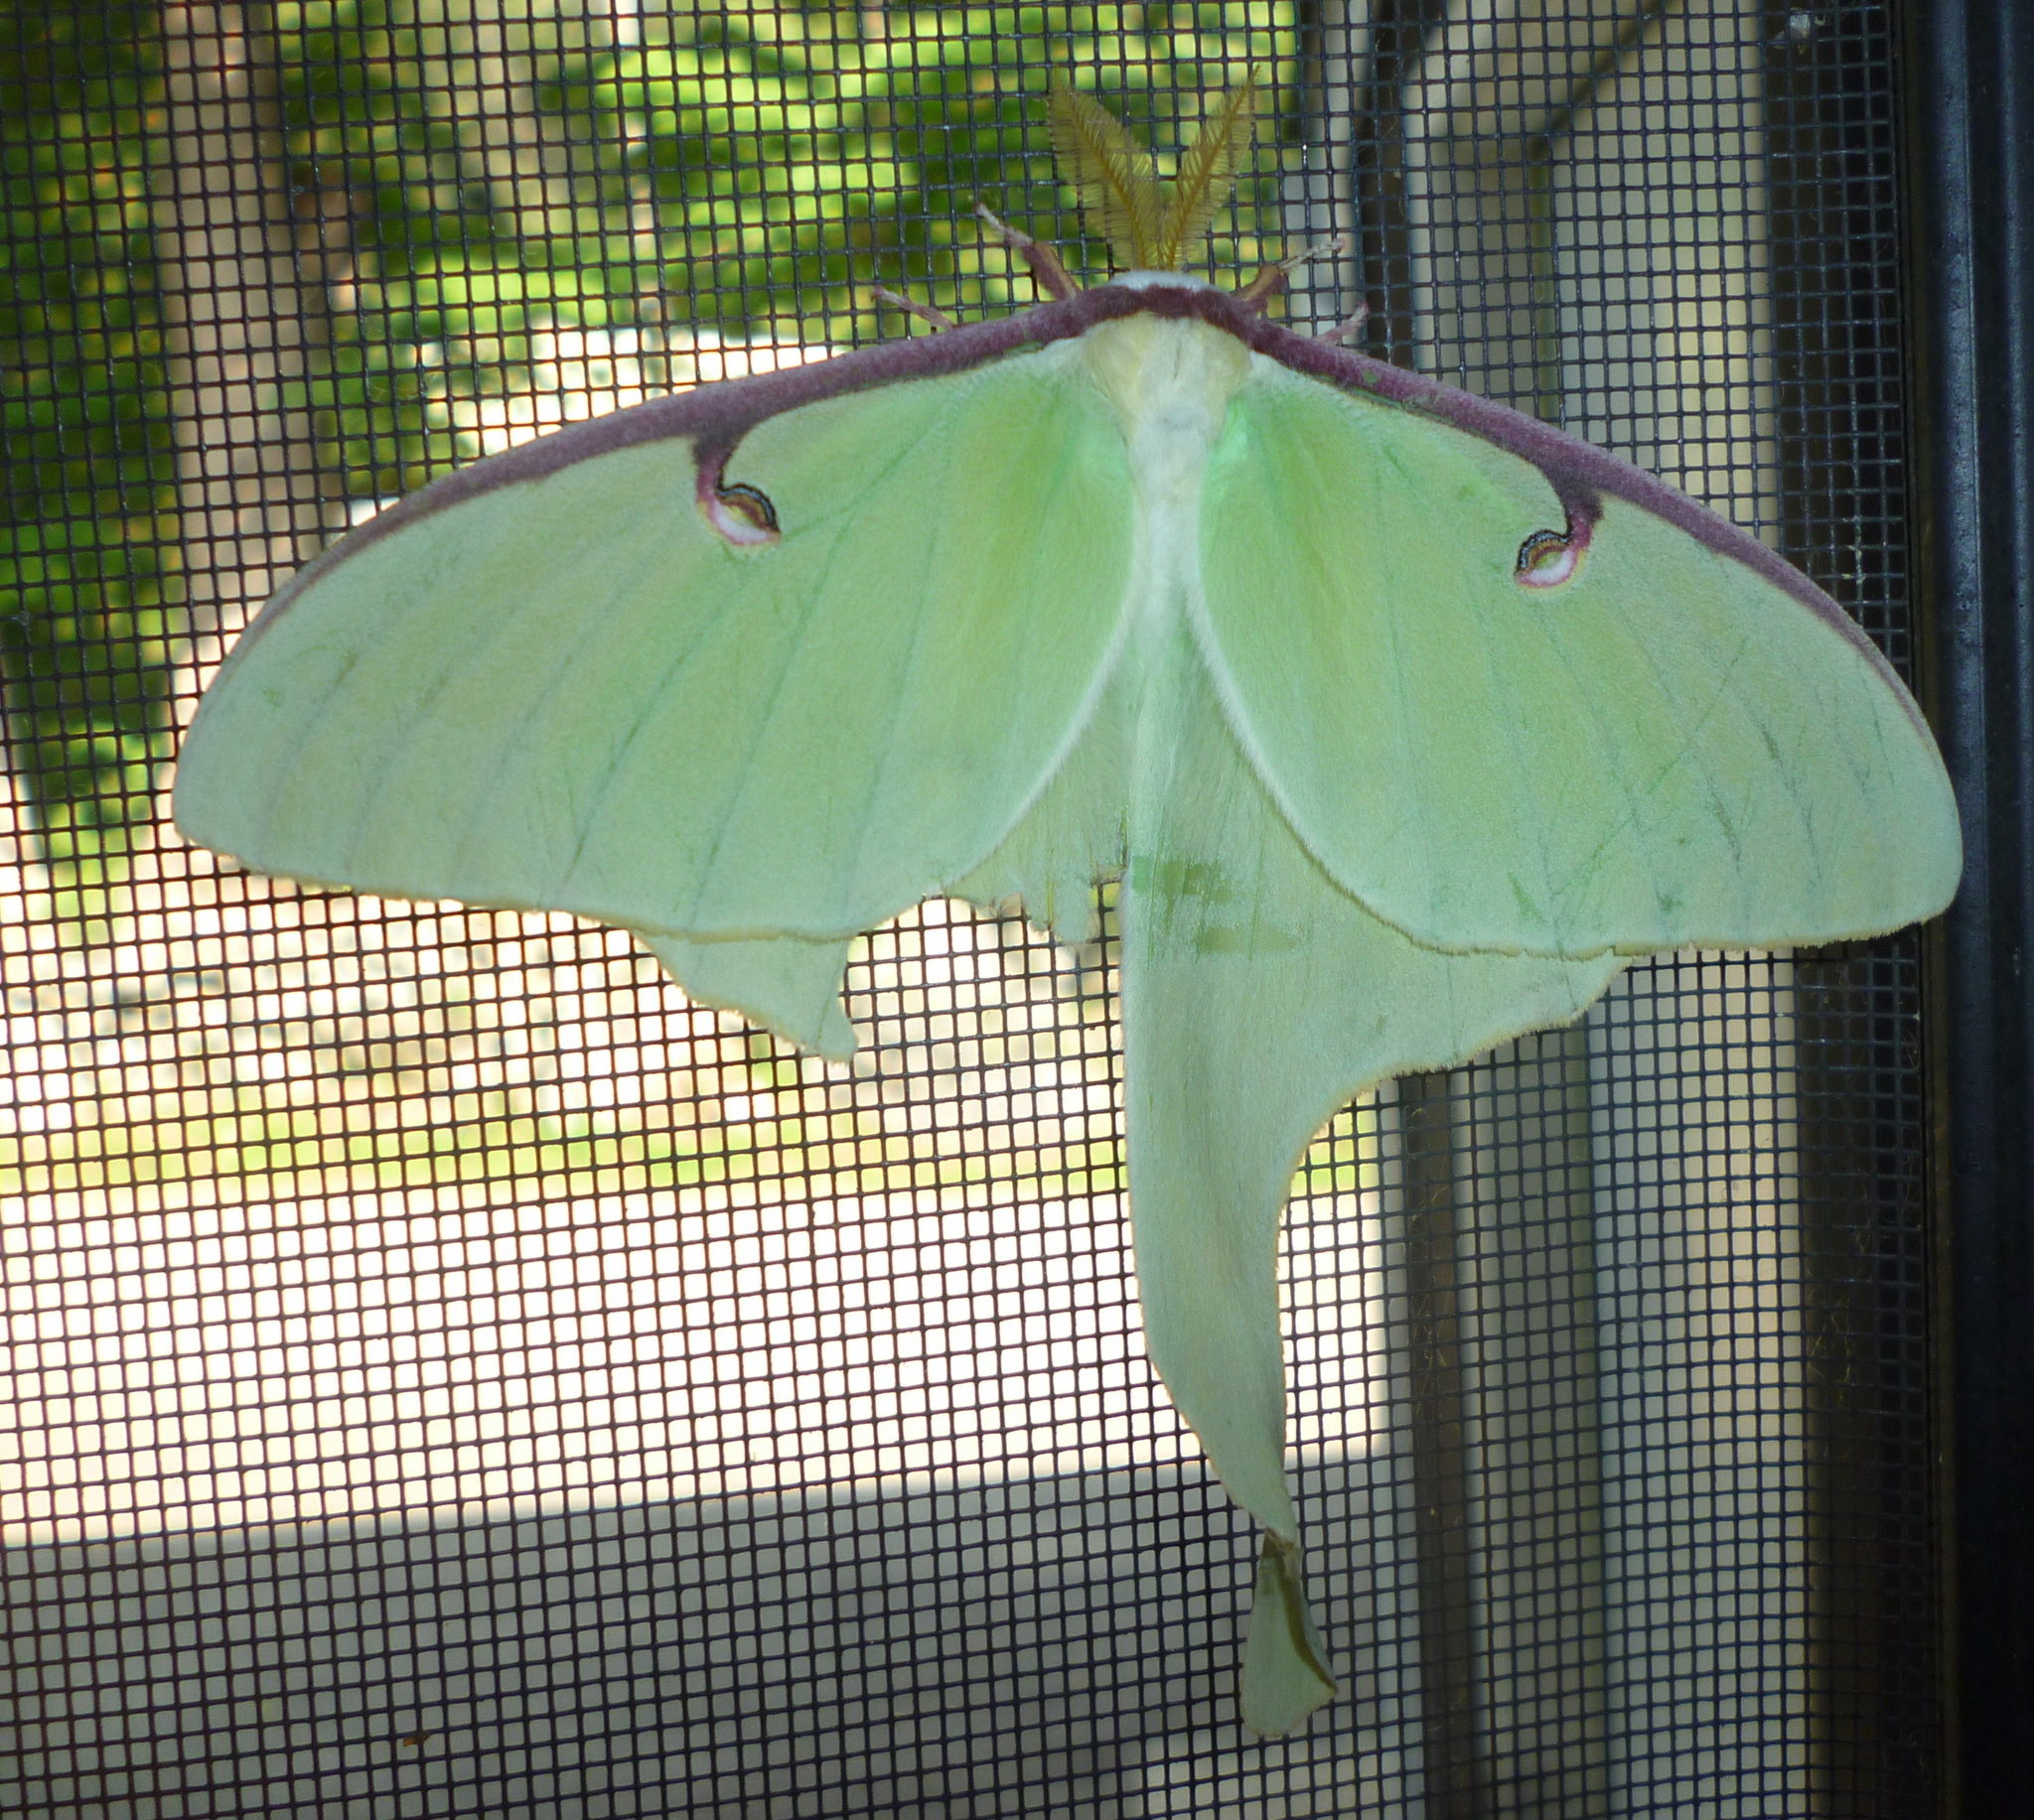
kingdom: Animalia
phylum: Arthropoda
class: Insecta
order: Lepidoptera
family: Saturniidae
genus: Actias
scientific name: Actias luna
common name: Luna moth
